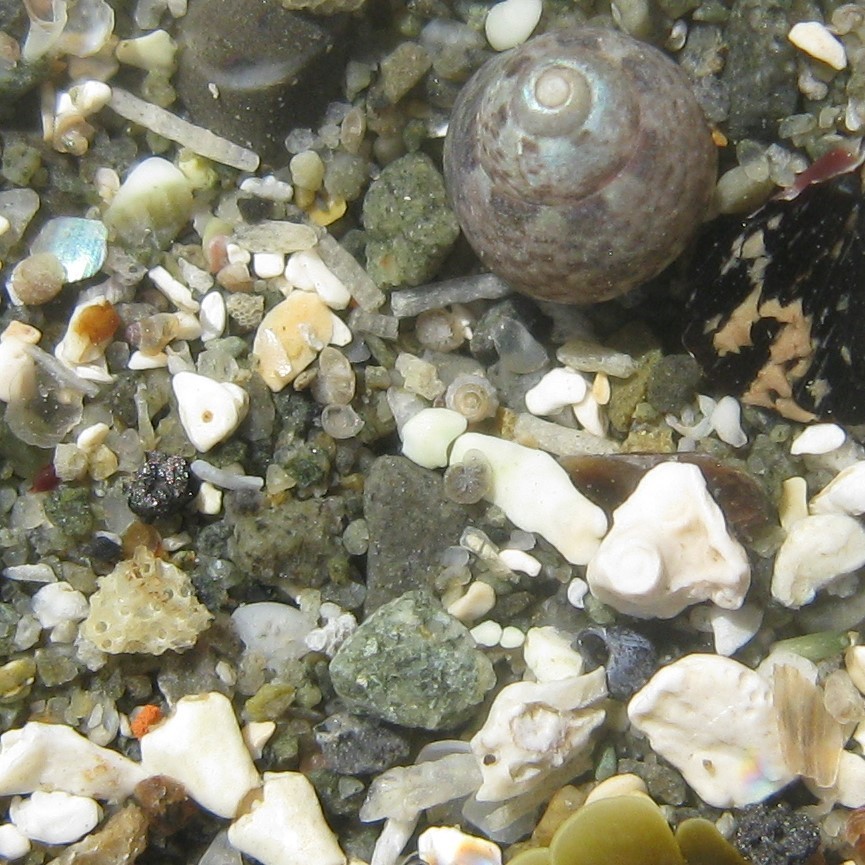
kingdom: Animalia
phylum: Mollusca
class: Gastropoda
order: Trochida
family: Trochidae
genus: Micrelenchus
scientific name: Micrelenchus tessellatus
